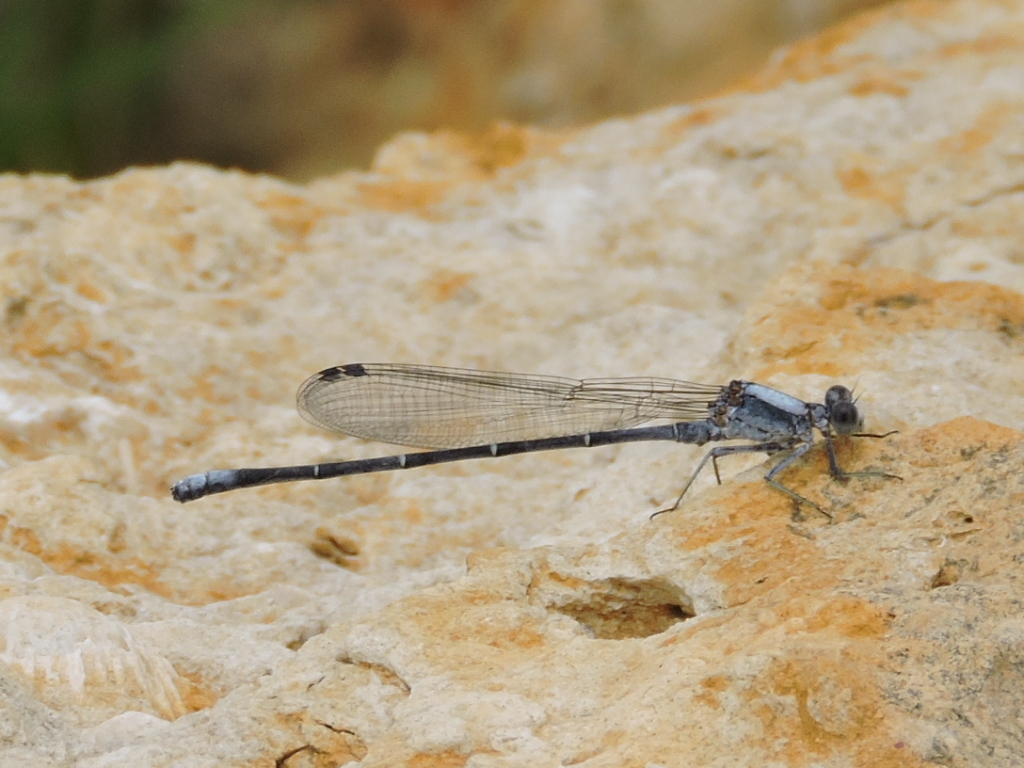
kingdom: Animalia
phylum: Arthropoda
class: Insecta
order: Odonata
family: Coenagrionidae
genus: Argia
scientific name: Argia moesta
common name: Powdered dancer
